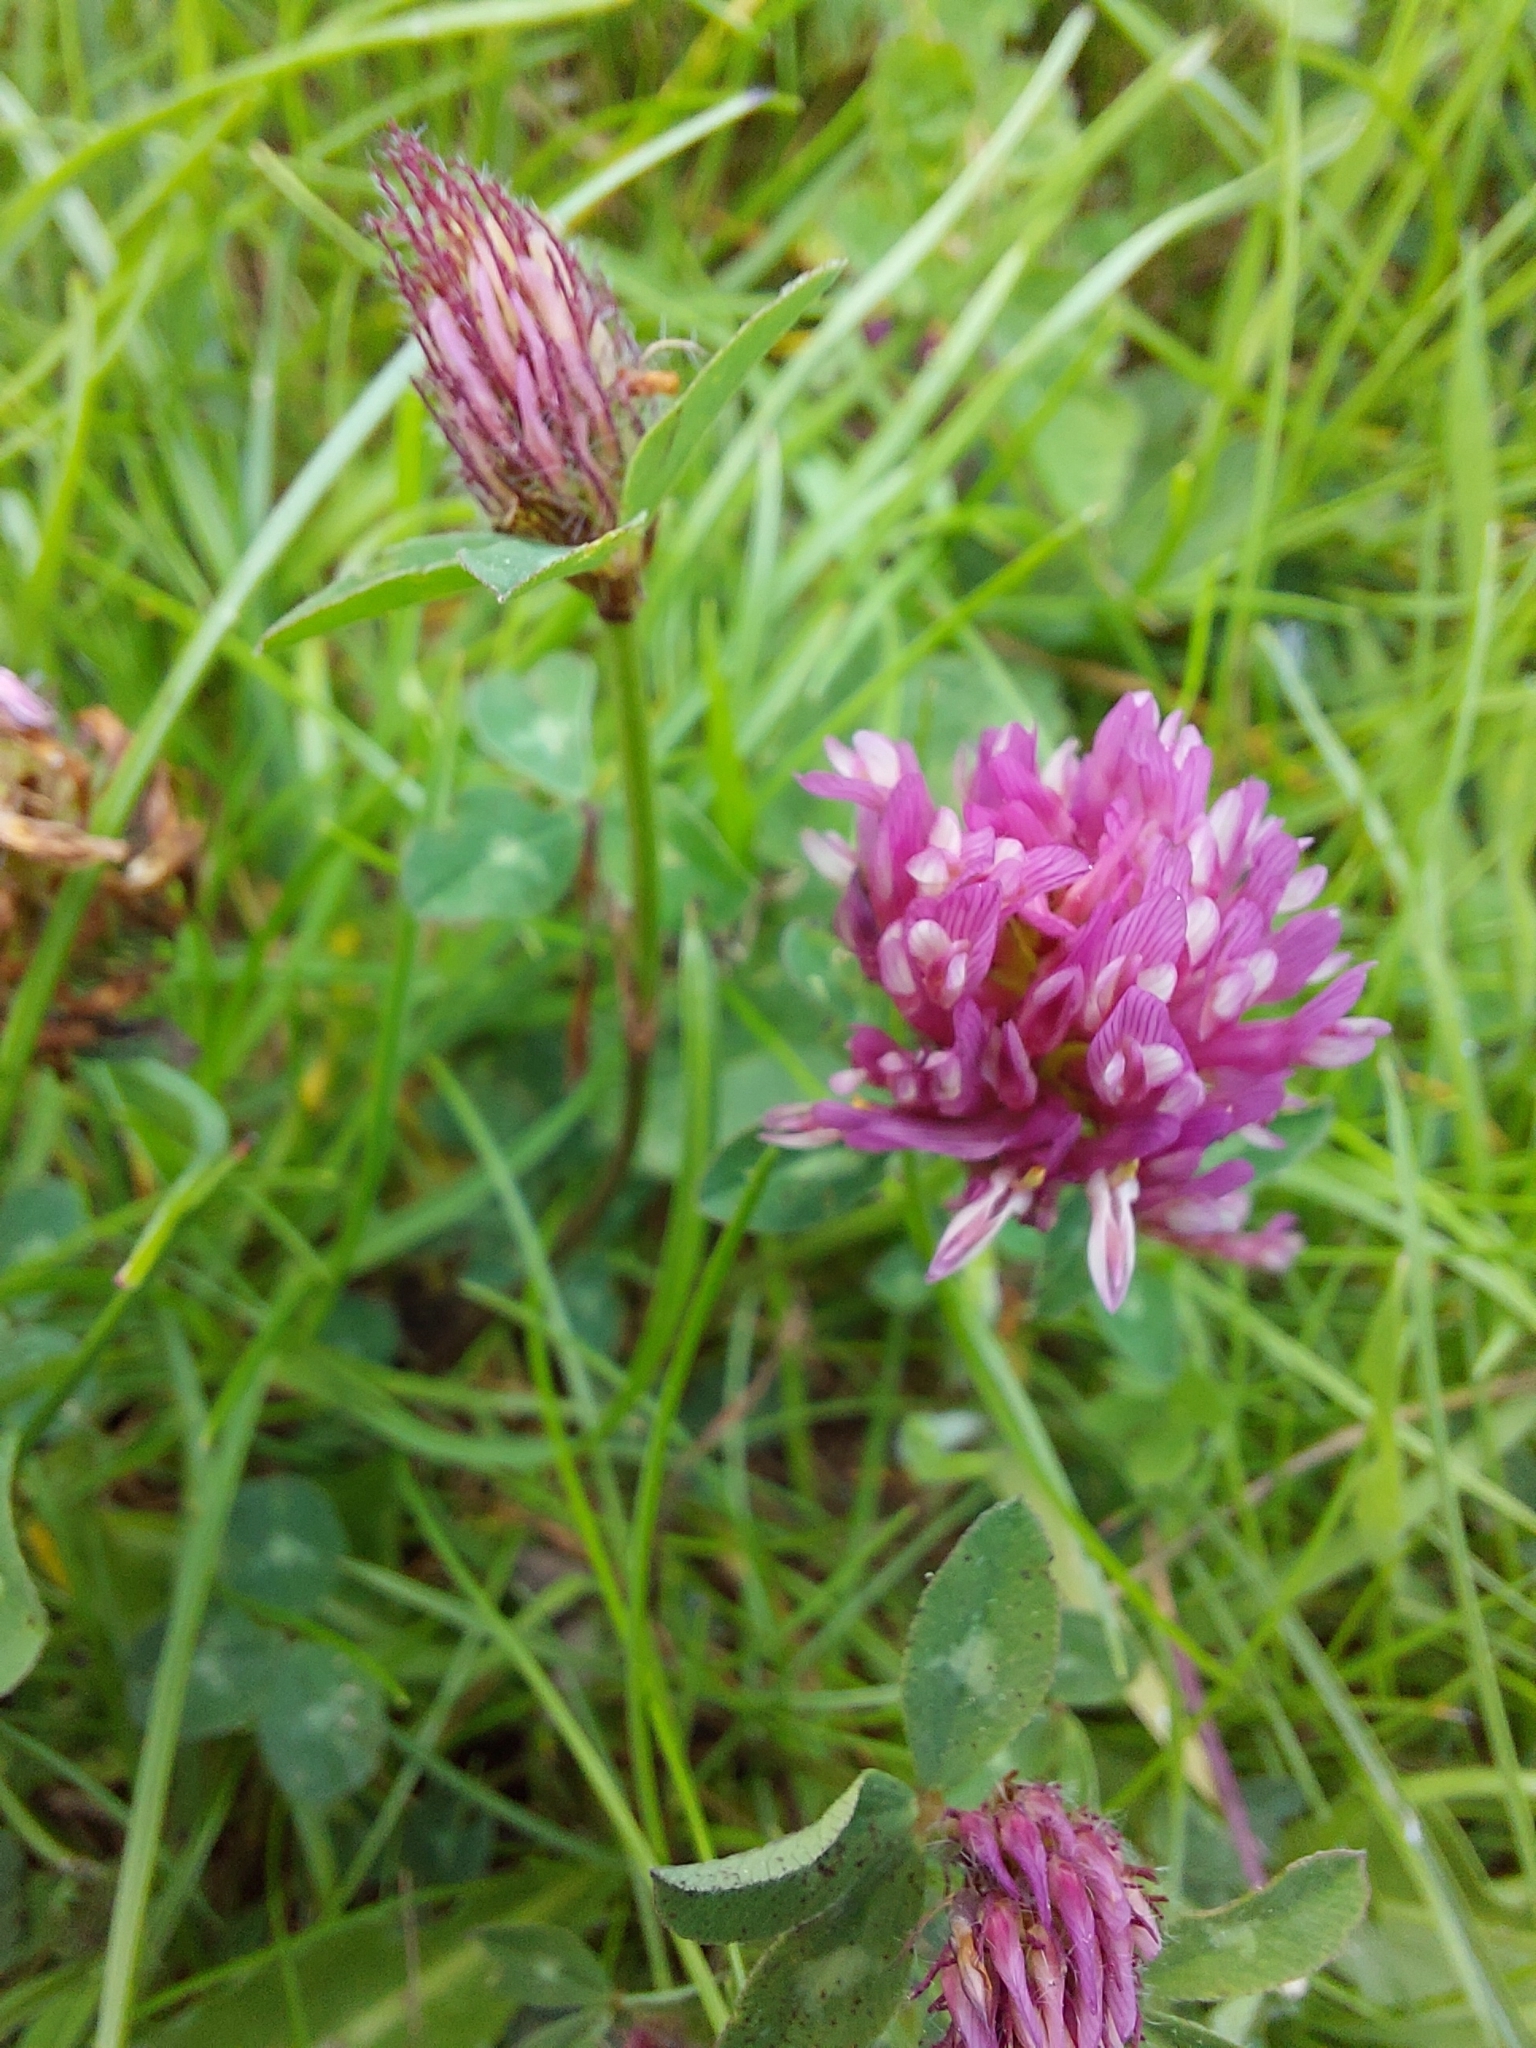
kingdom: Plantae
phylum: Tracheophyta
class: Magnoliopsida
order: Fabales
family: Fabaceae
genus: Trifolium
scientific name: Trifolium pratense
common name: Red clover
